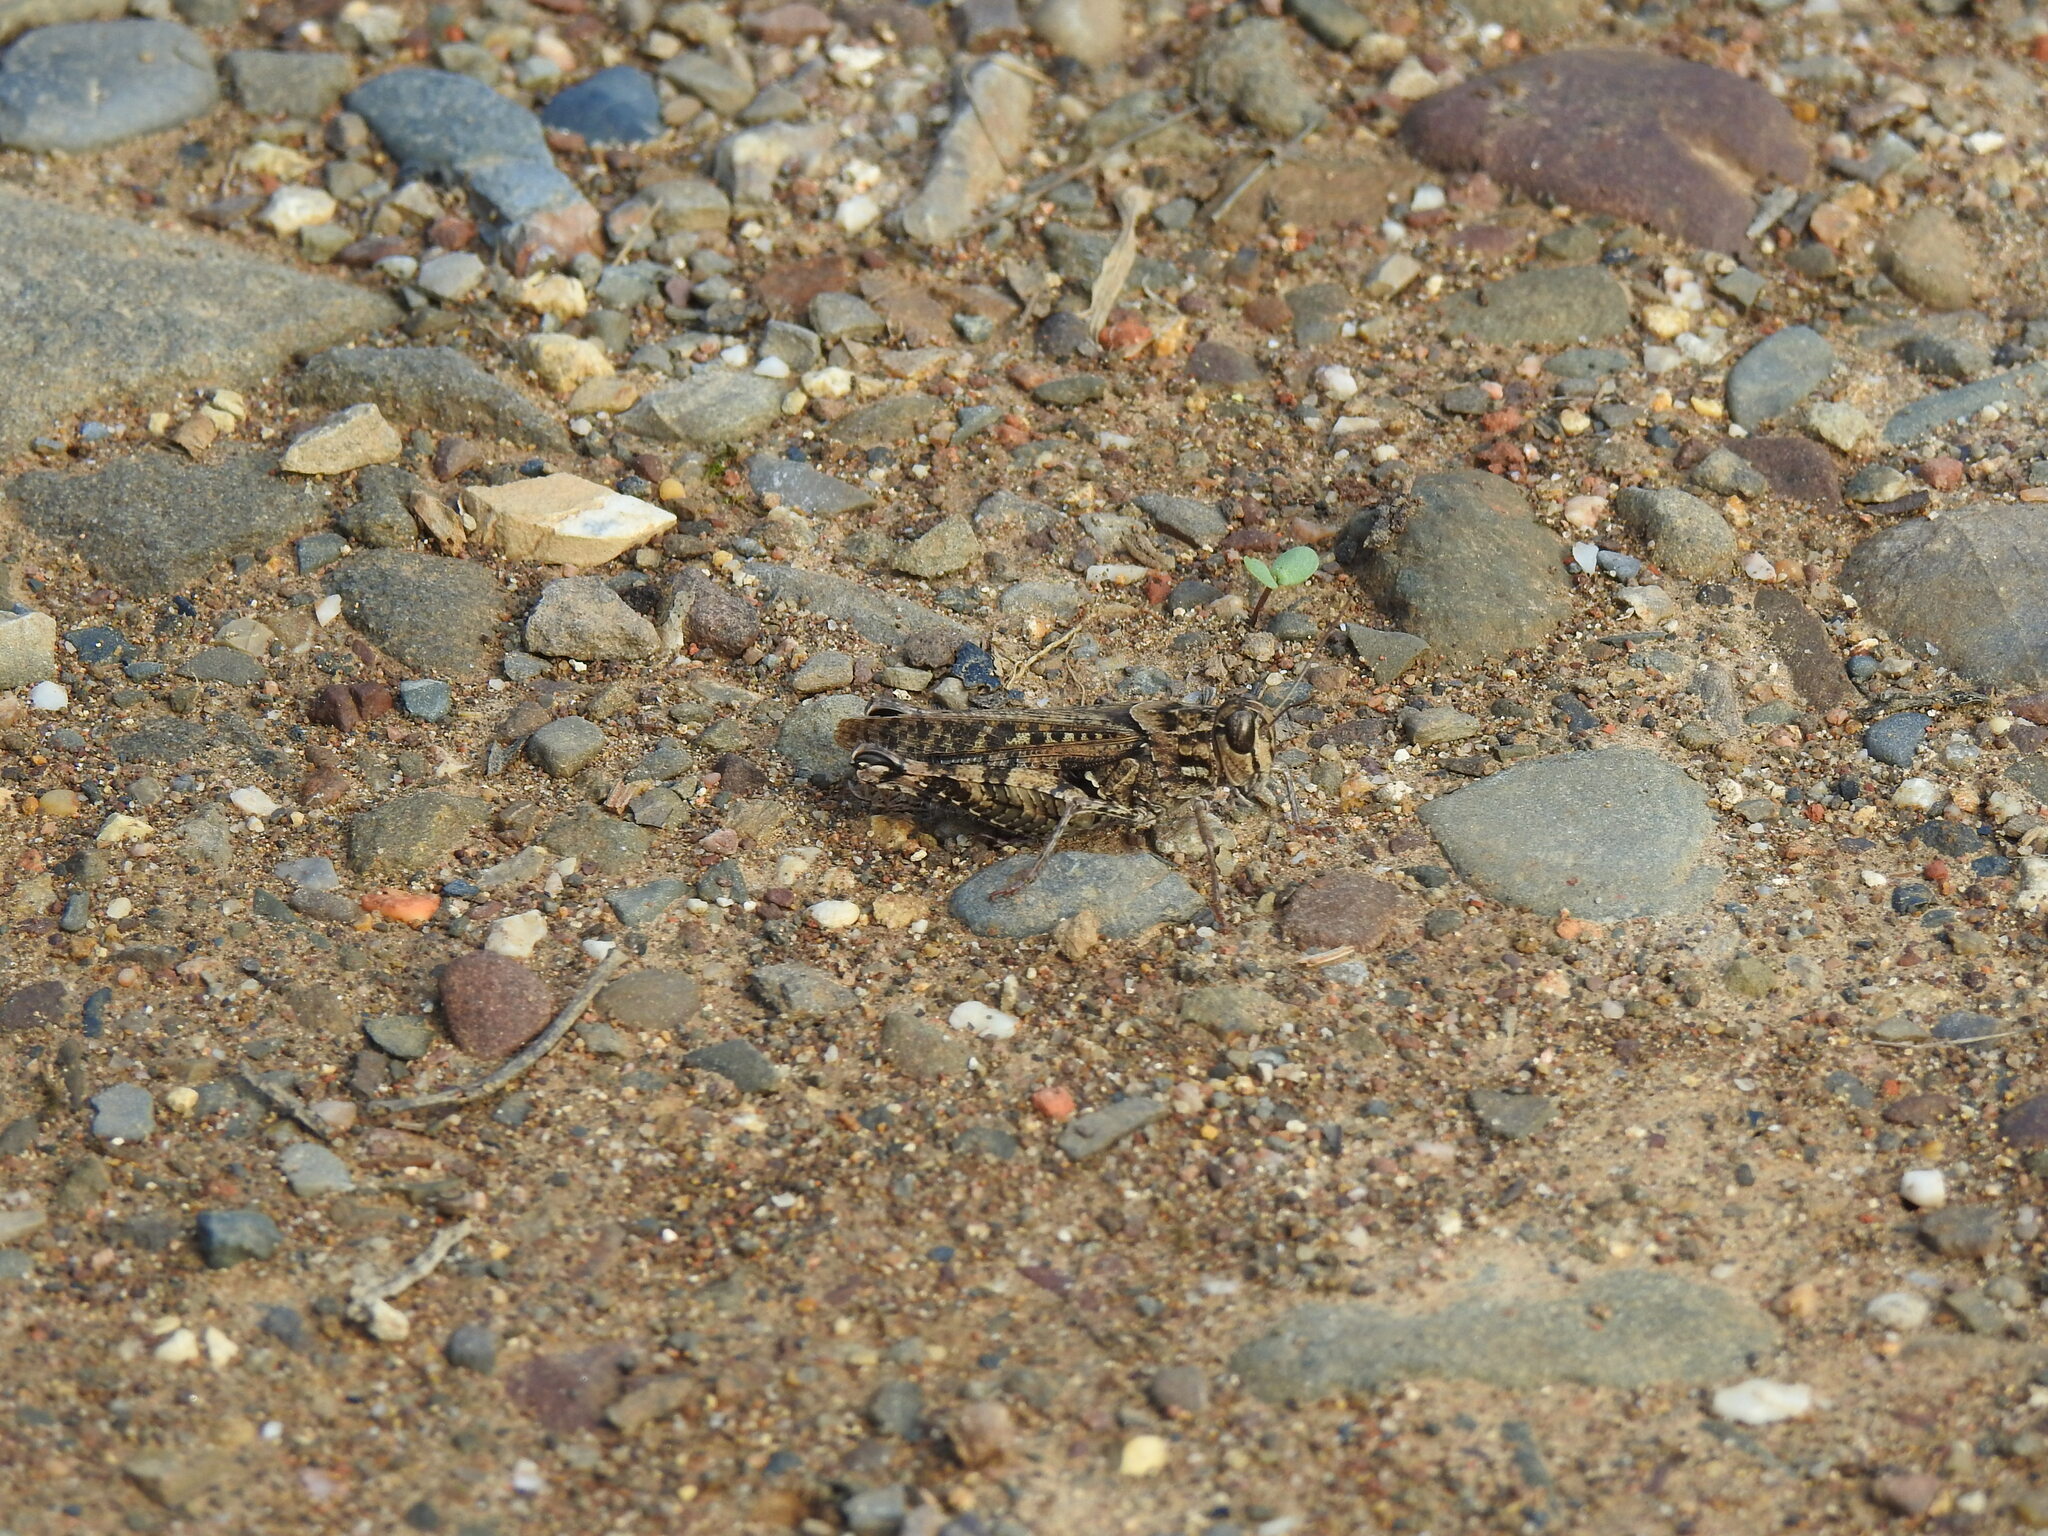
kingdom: Animalia
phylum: Arthropoda
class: Insecta
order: Orthoptera
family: Acrididae
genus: Calliptamus
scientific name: Calliptamus barbarus
